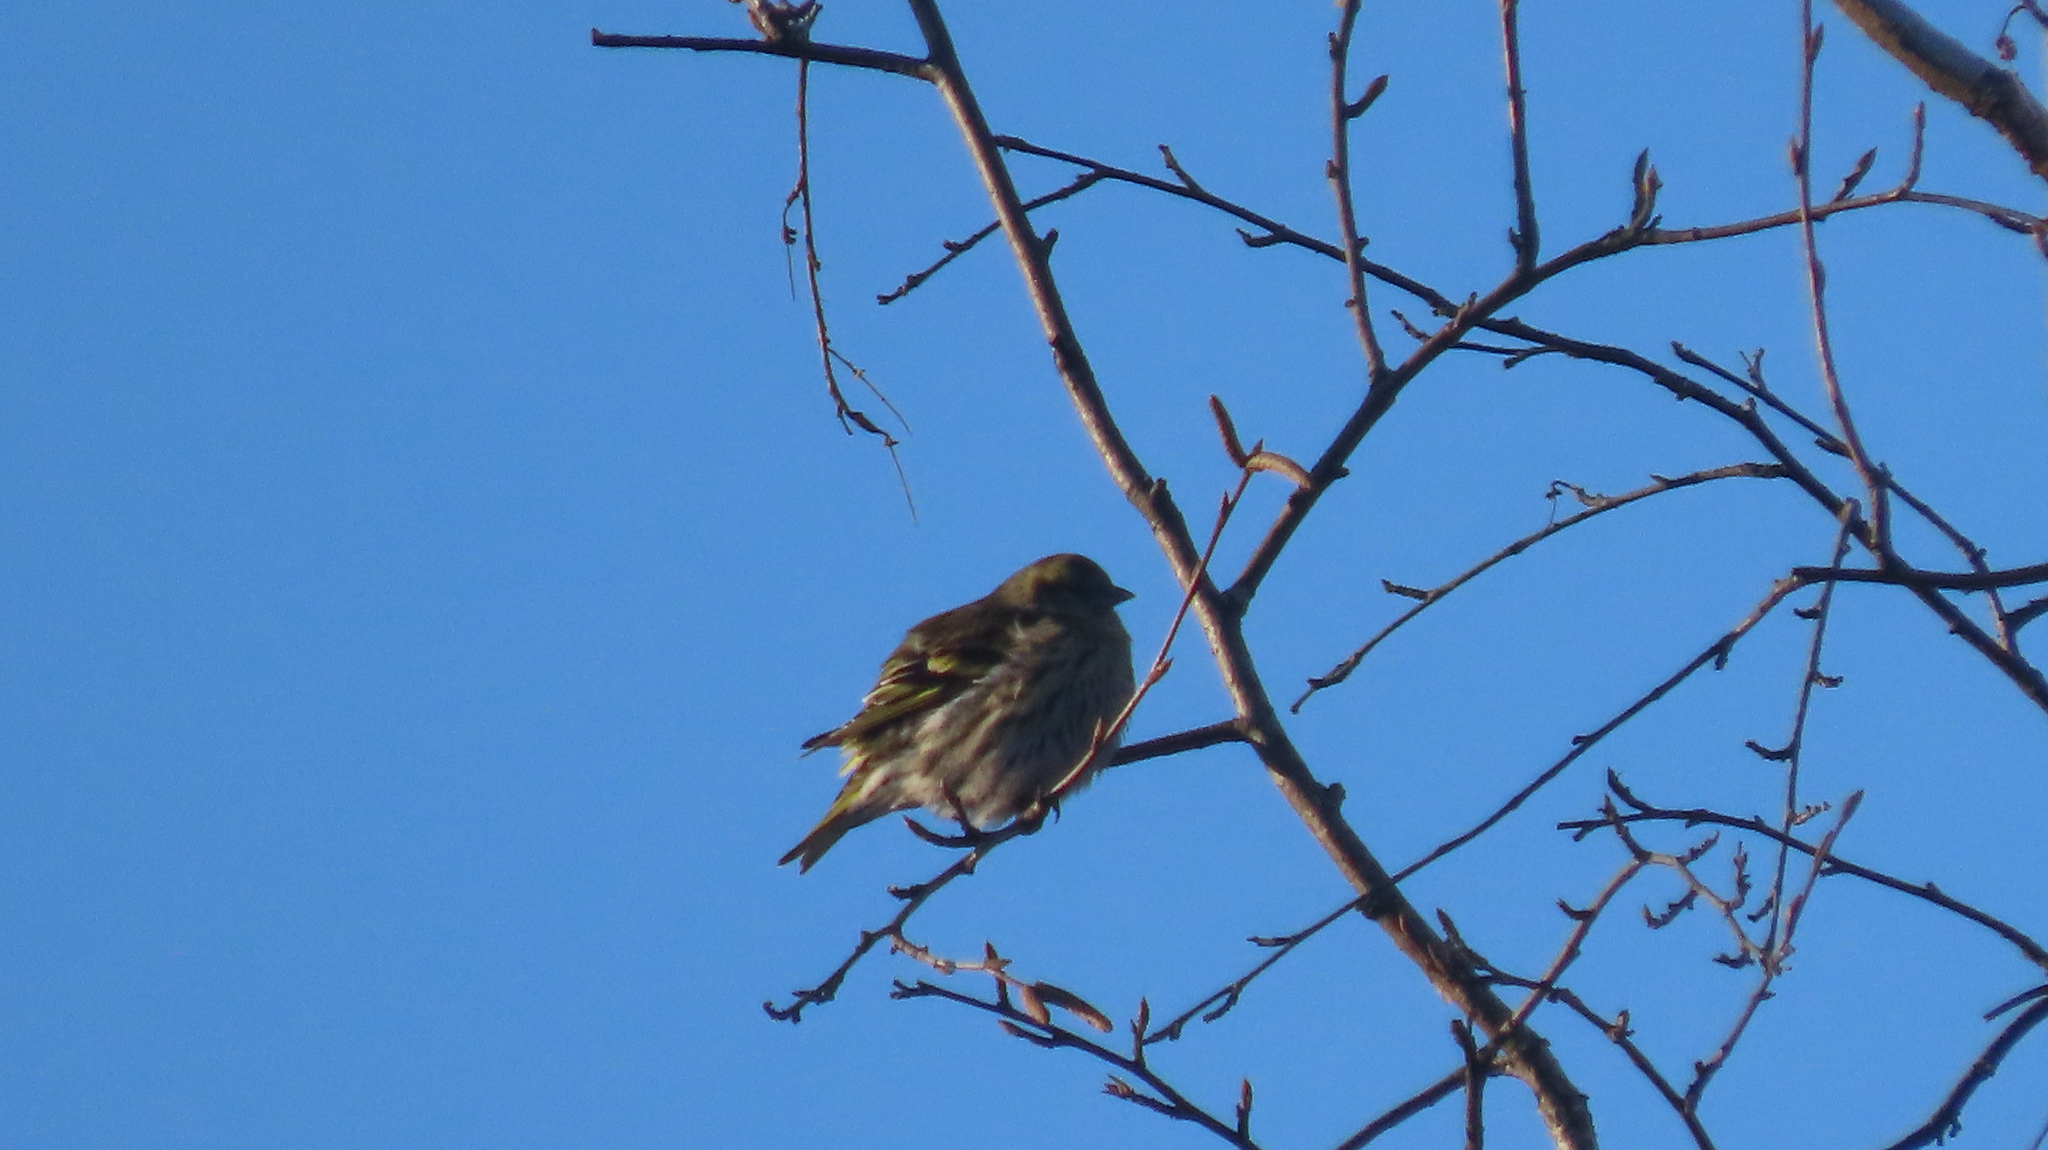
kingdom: Animalia
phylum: Chordata
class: Aves
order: Passeriformes
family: Fringillidae
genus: Spinus
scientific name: Spinus spinus
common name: Eurasian siskin
